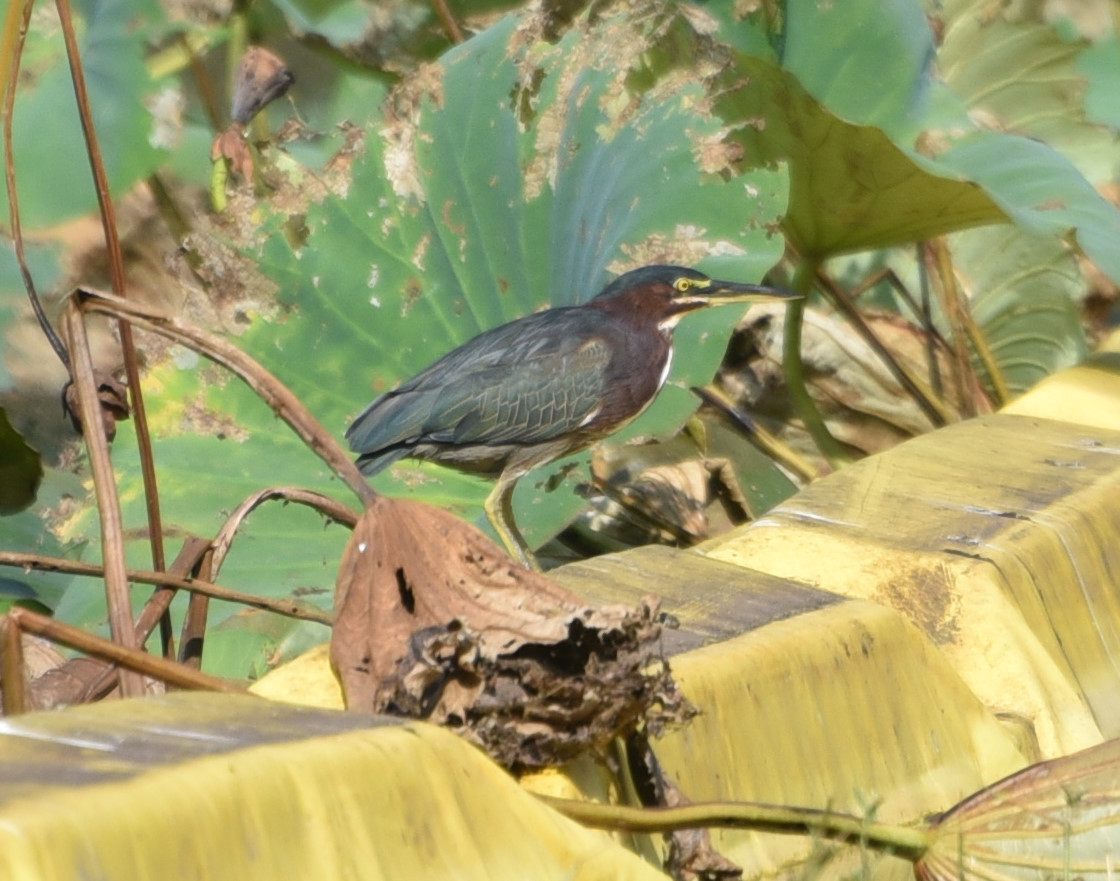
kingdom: Animalia
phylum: Chordata
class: Aves
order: Pelecaniformes
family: Ardeidae
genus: Butorides
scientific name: Butorides virescens
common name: Green heron
